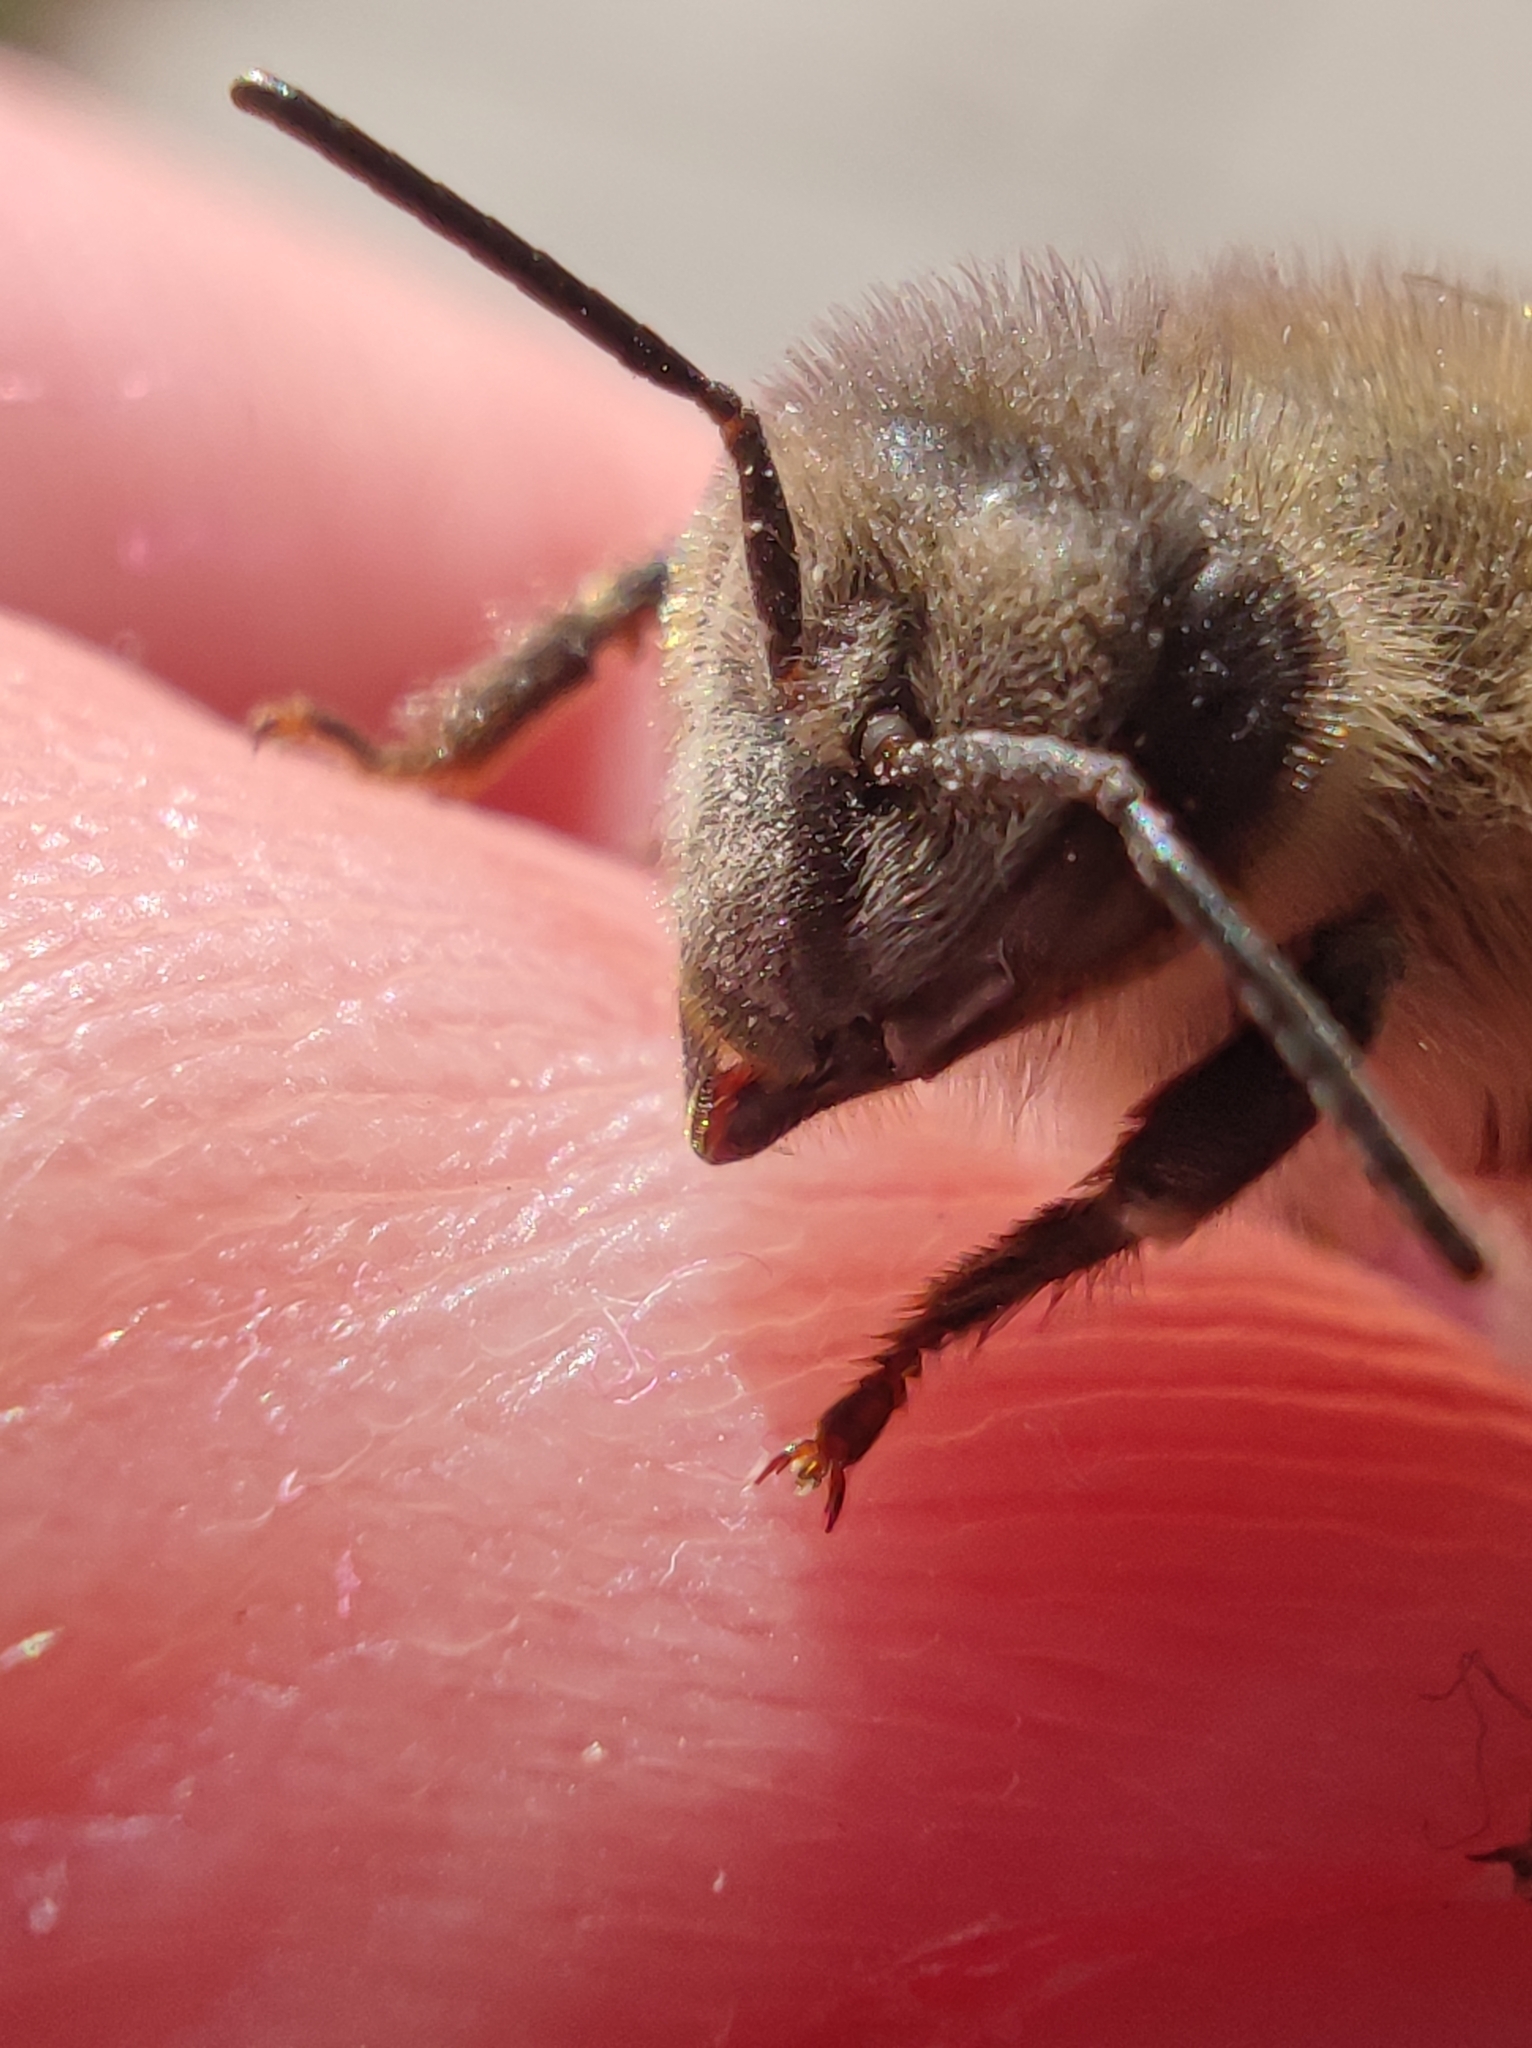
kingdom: Animalia
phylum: Arthropoda
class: Insecta
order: Hymenoptera
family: Apidae
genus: Apis
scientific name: Apis mellifera
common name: Honey bee
